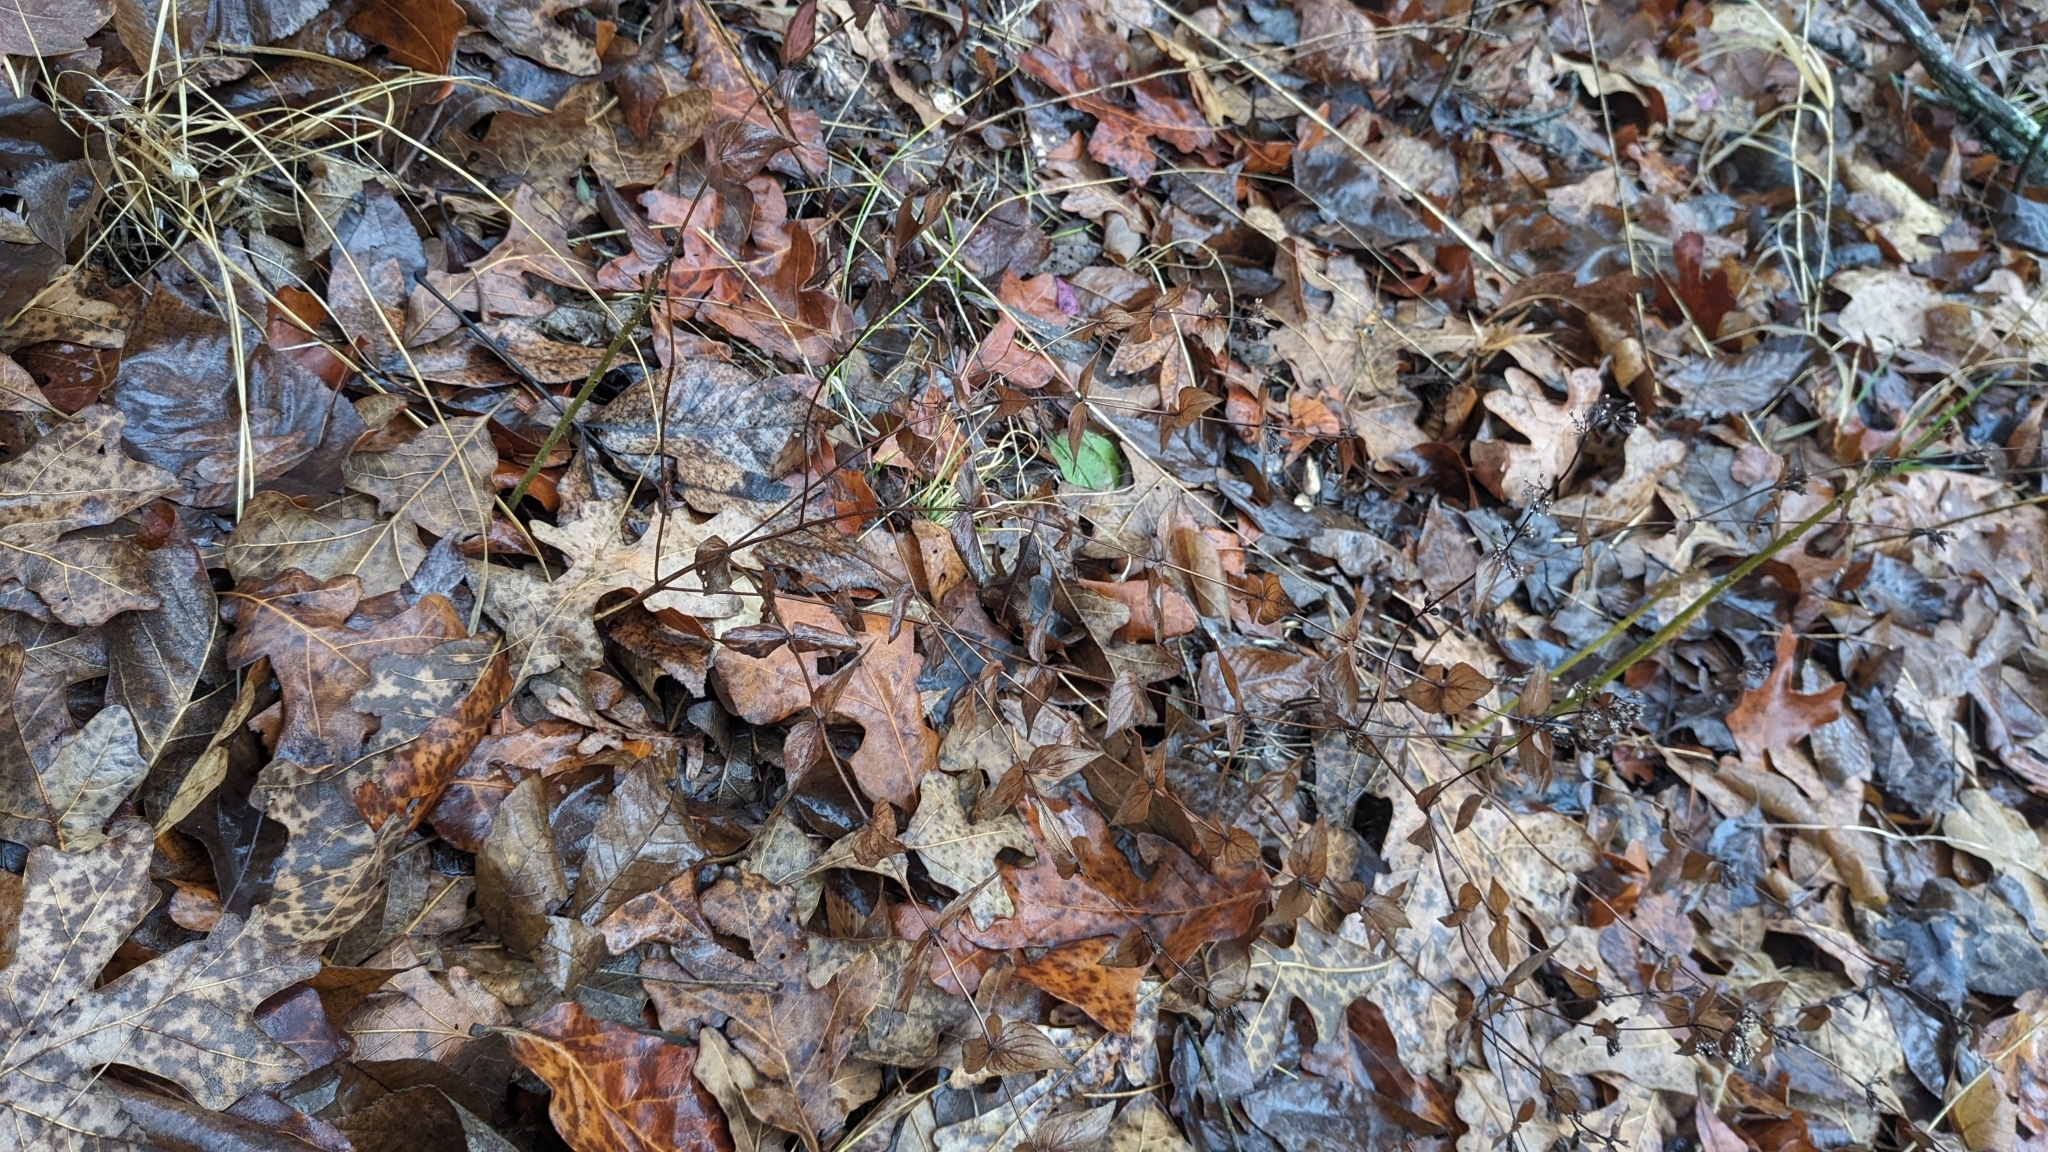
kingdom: Plantae
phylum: Tracheophyta
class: Magnoliopsida
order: Lamiales
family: Lamiaceae
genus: Cunila
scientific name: Cunila origanoides
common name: American dittany
